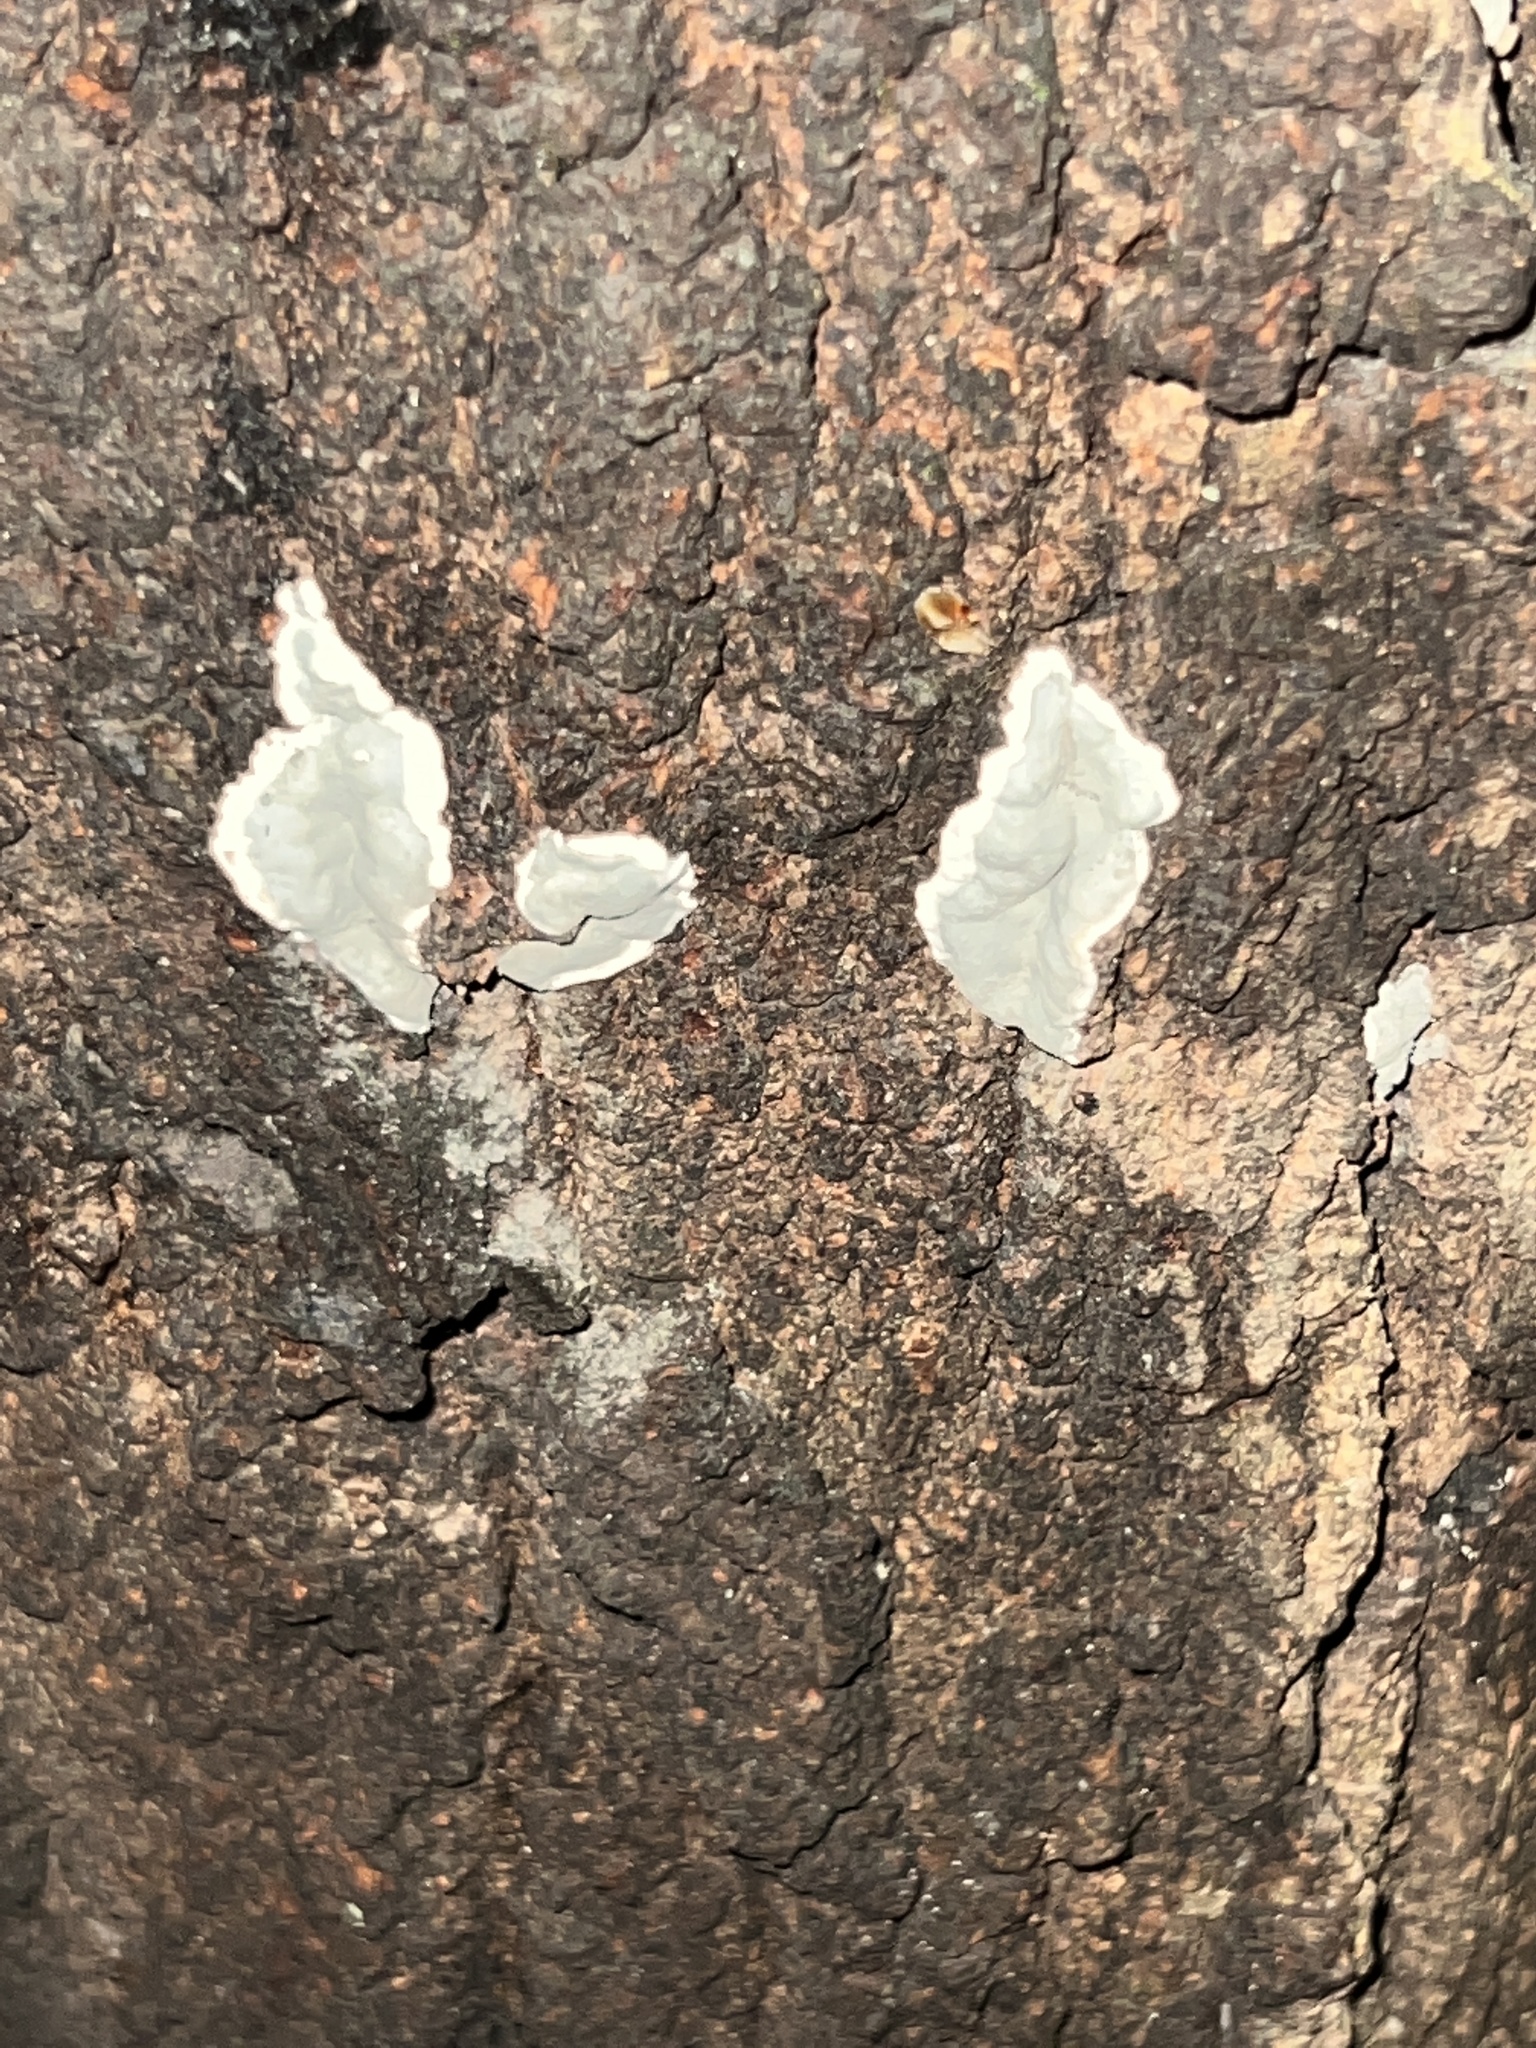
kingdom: Fungi
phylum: Ascomycota
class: Sordariomycetes
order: Xylariales
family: Xylariaceae
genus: Kretzschmaria
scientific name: Kretzschmaria hedjaroudei
